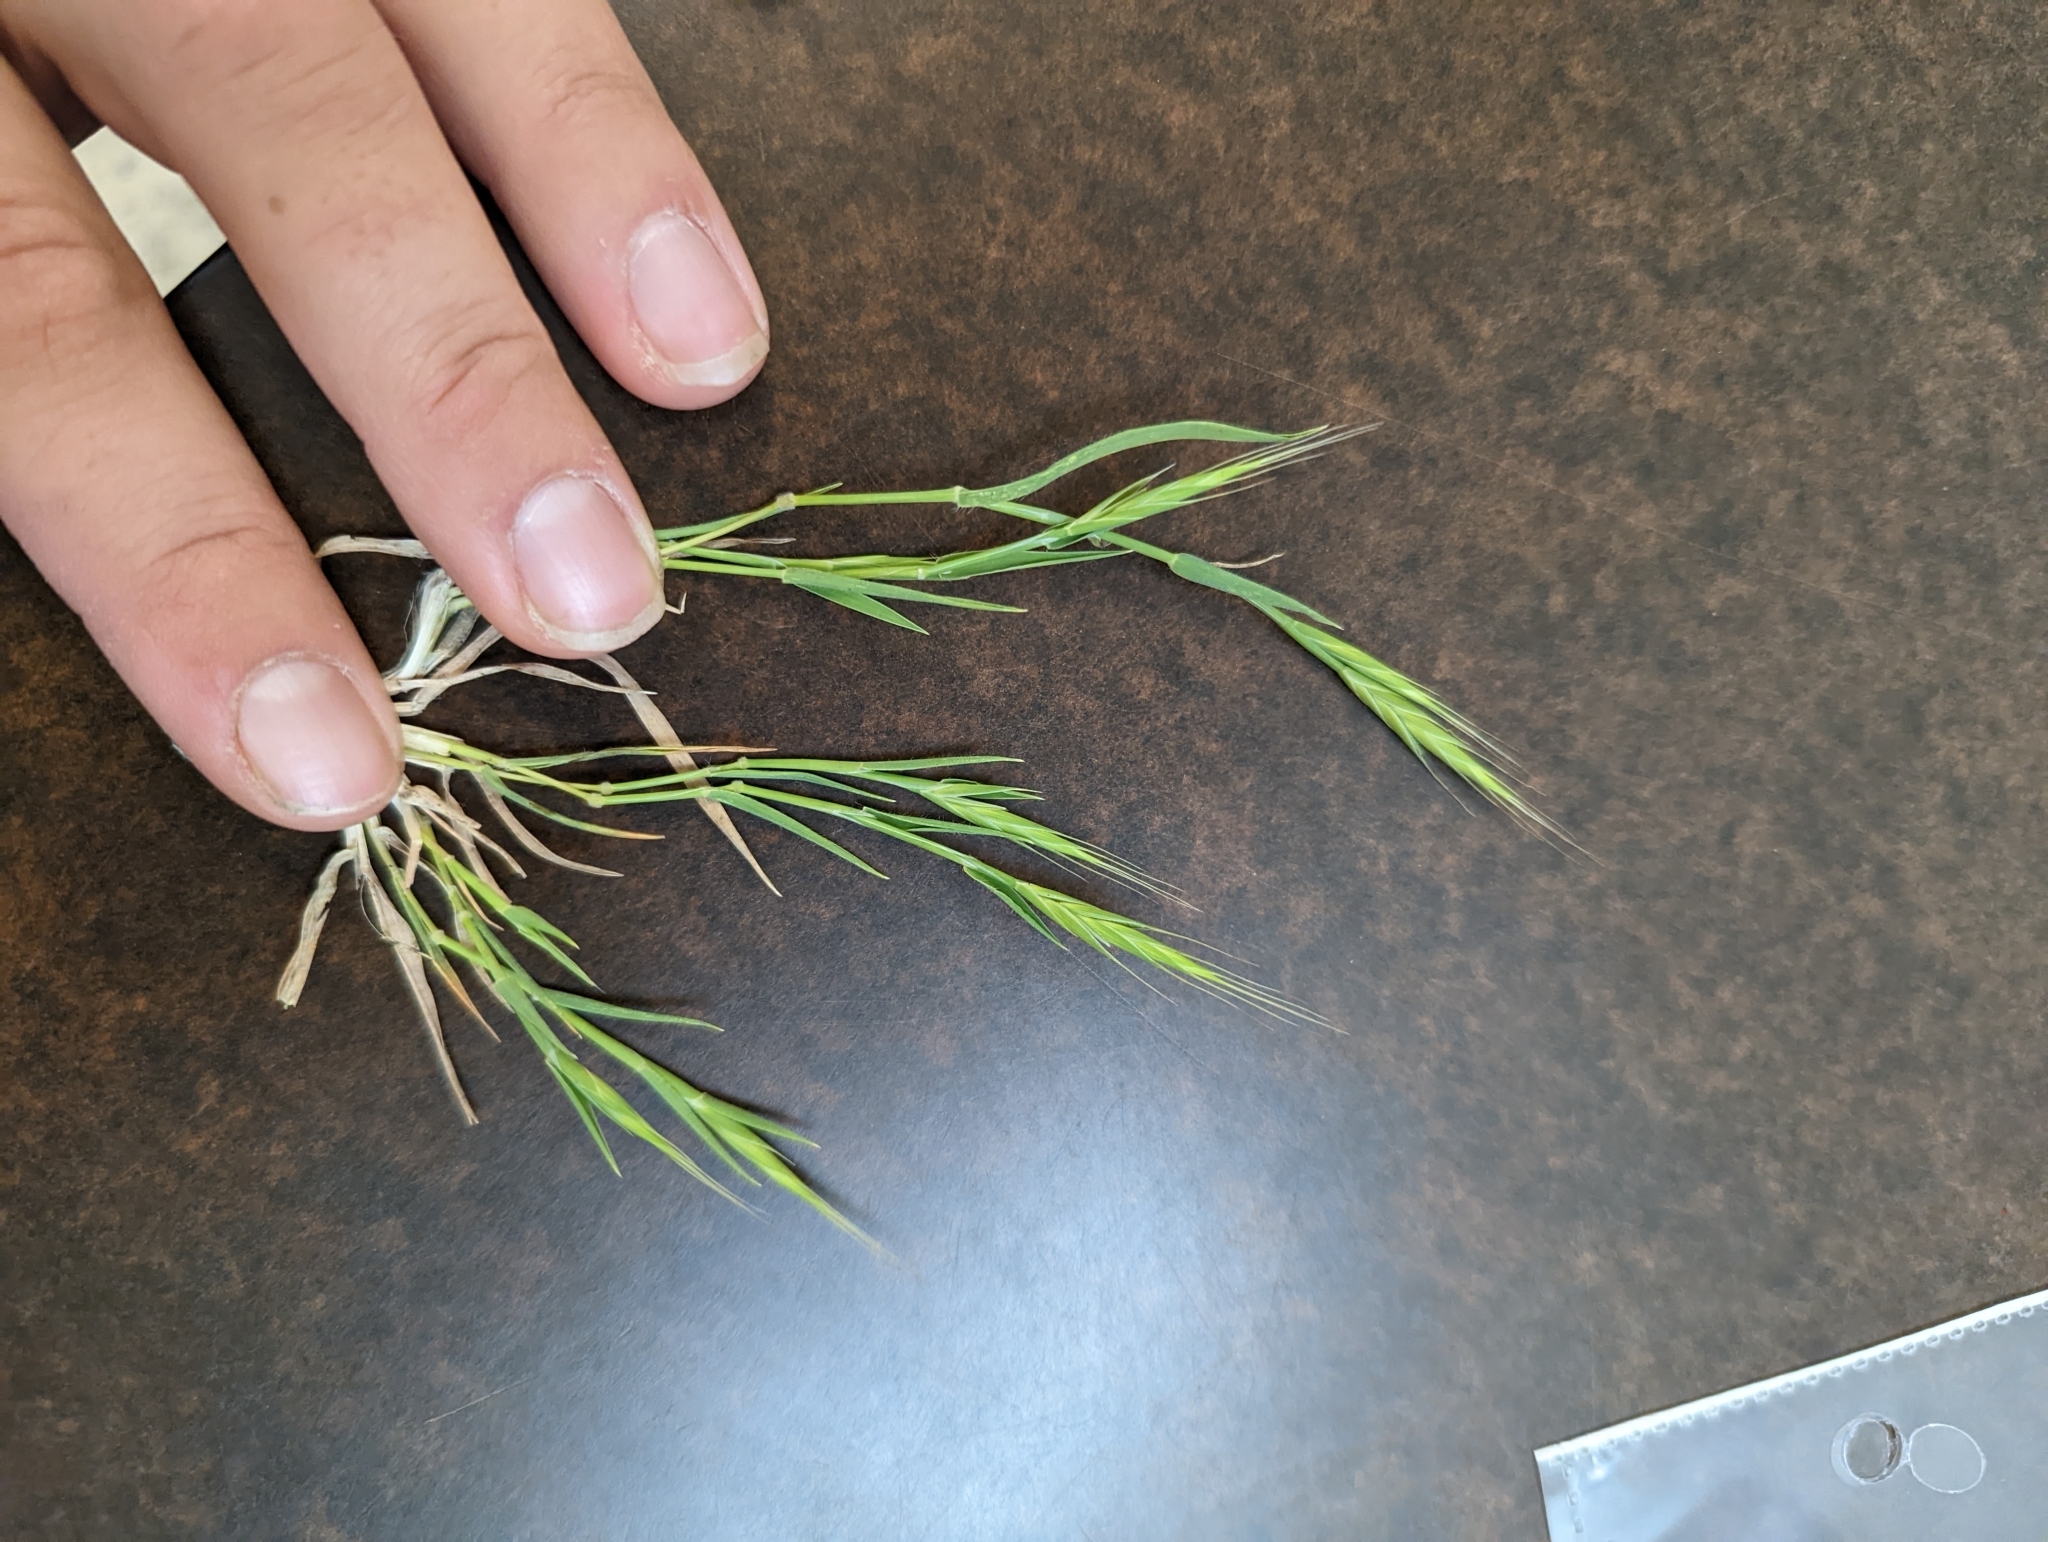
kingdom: Plantae
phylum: Tracheophyta
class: Liliopsida
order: Poales
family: Poaceae
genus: Brachypodium
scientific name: Brachypodium distachyon
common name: Stiff brome
